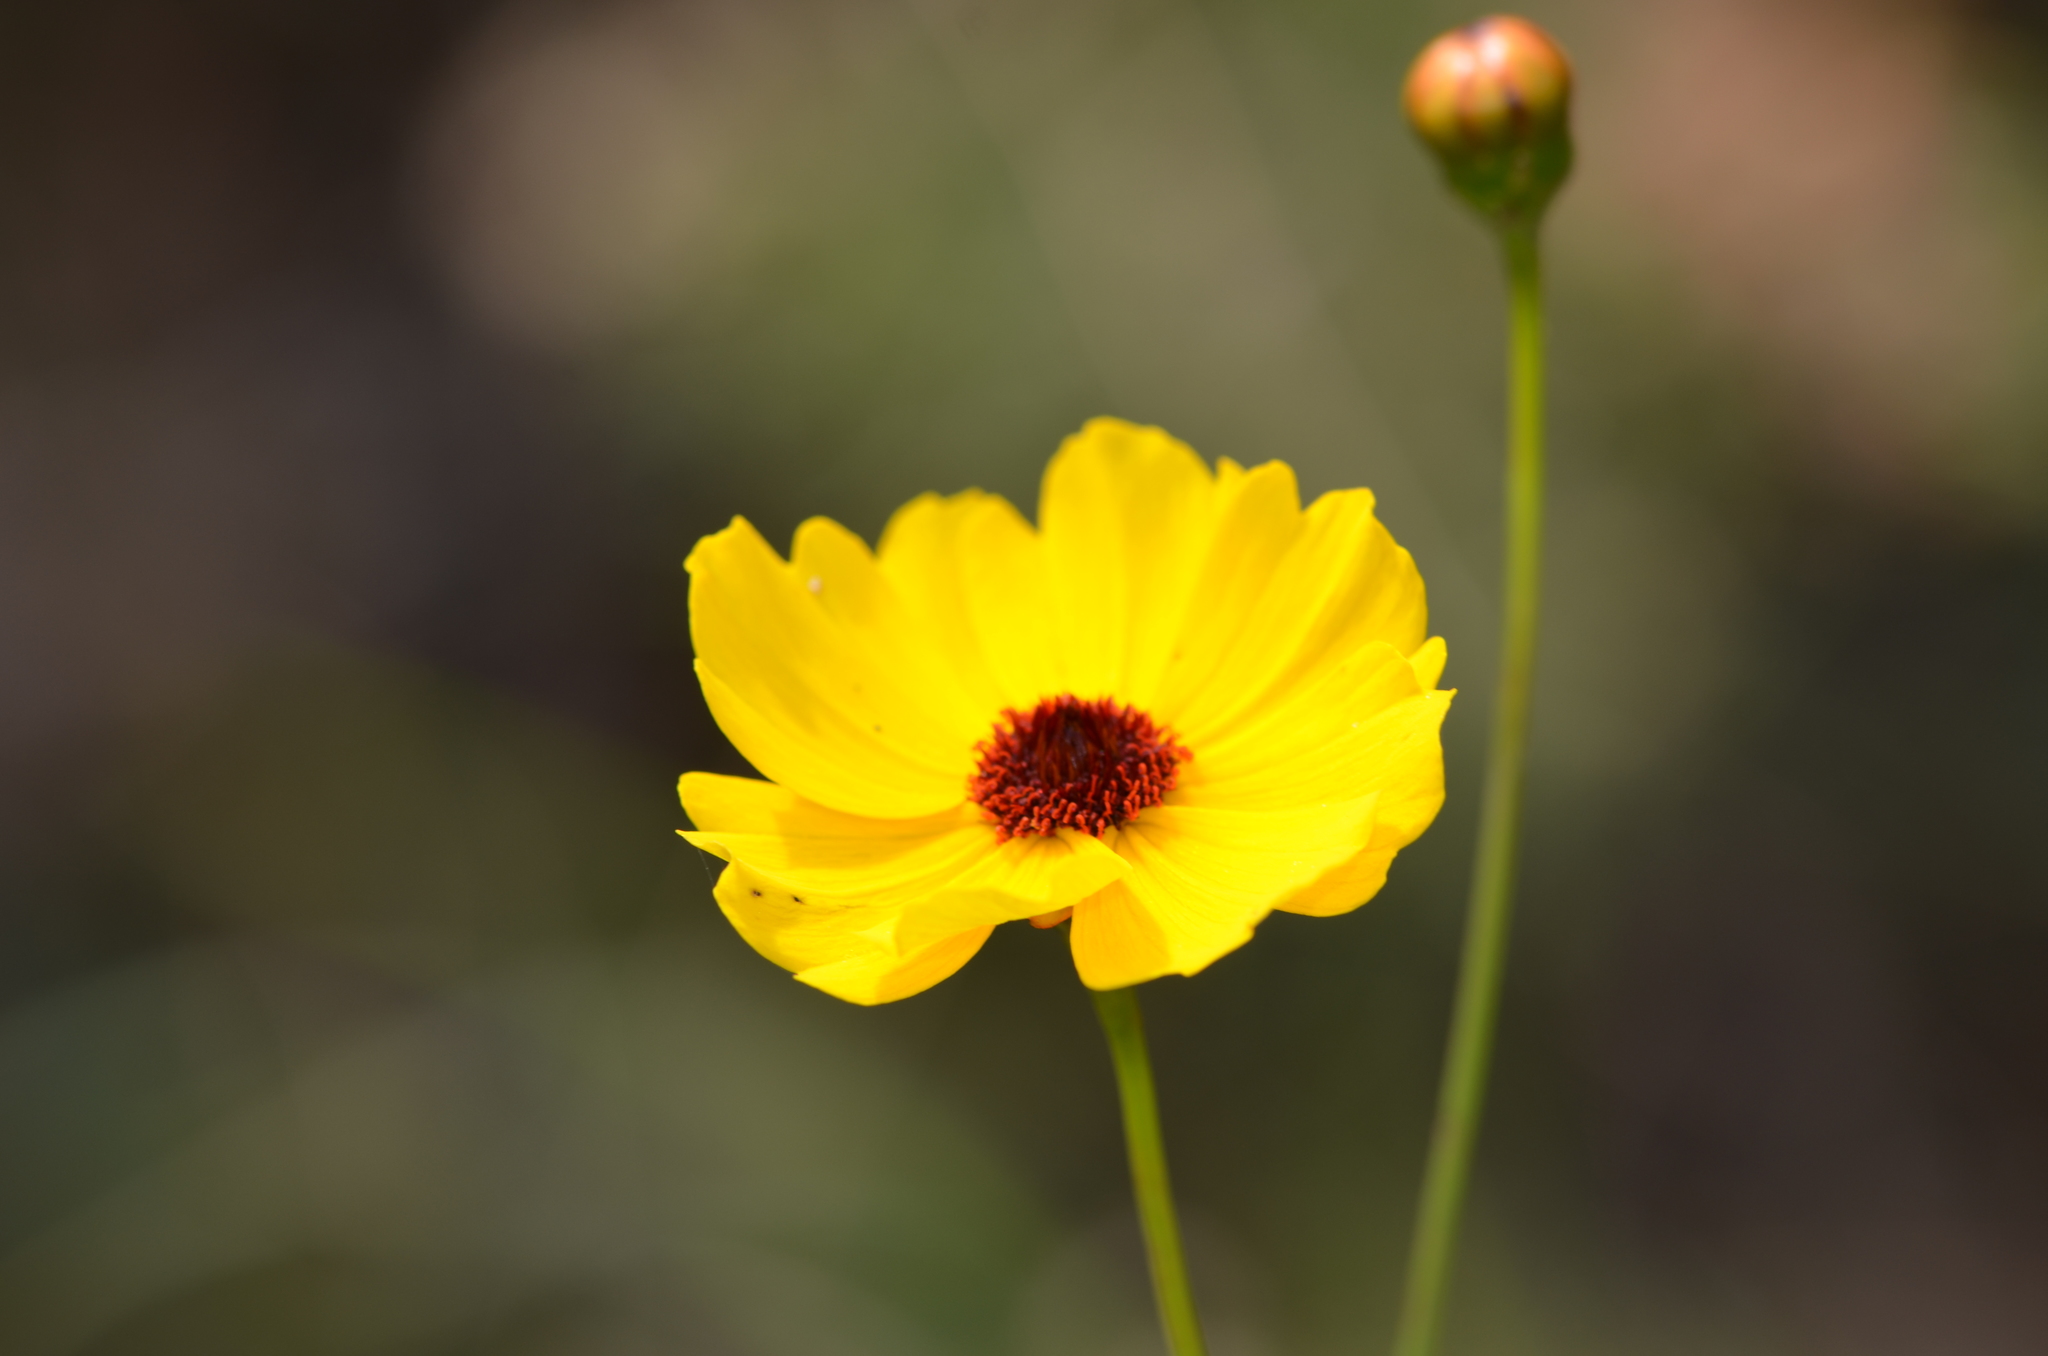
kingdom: Plantae
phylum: Tracheophyta
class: Magnoliopsida
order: Asterales
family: Asteraceae
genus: Coreopsis
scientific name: Coreopsis leavenworthii
